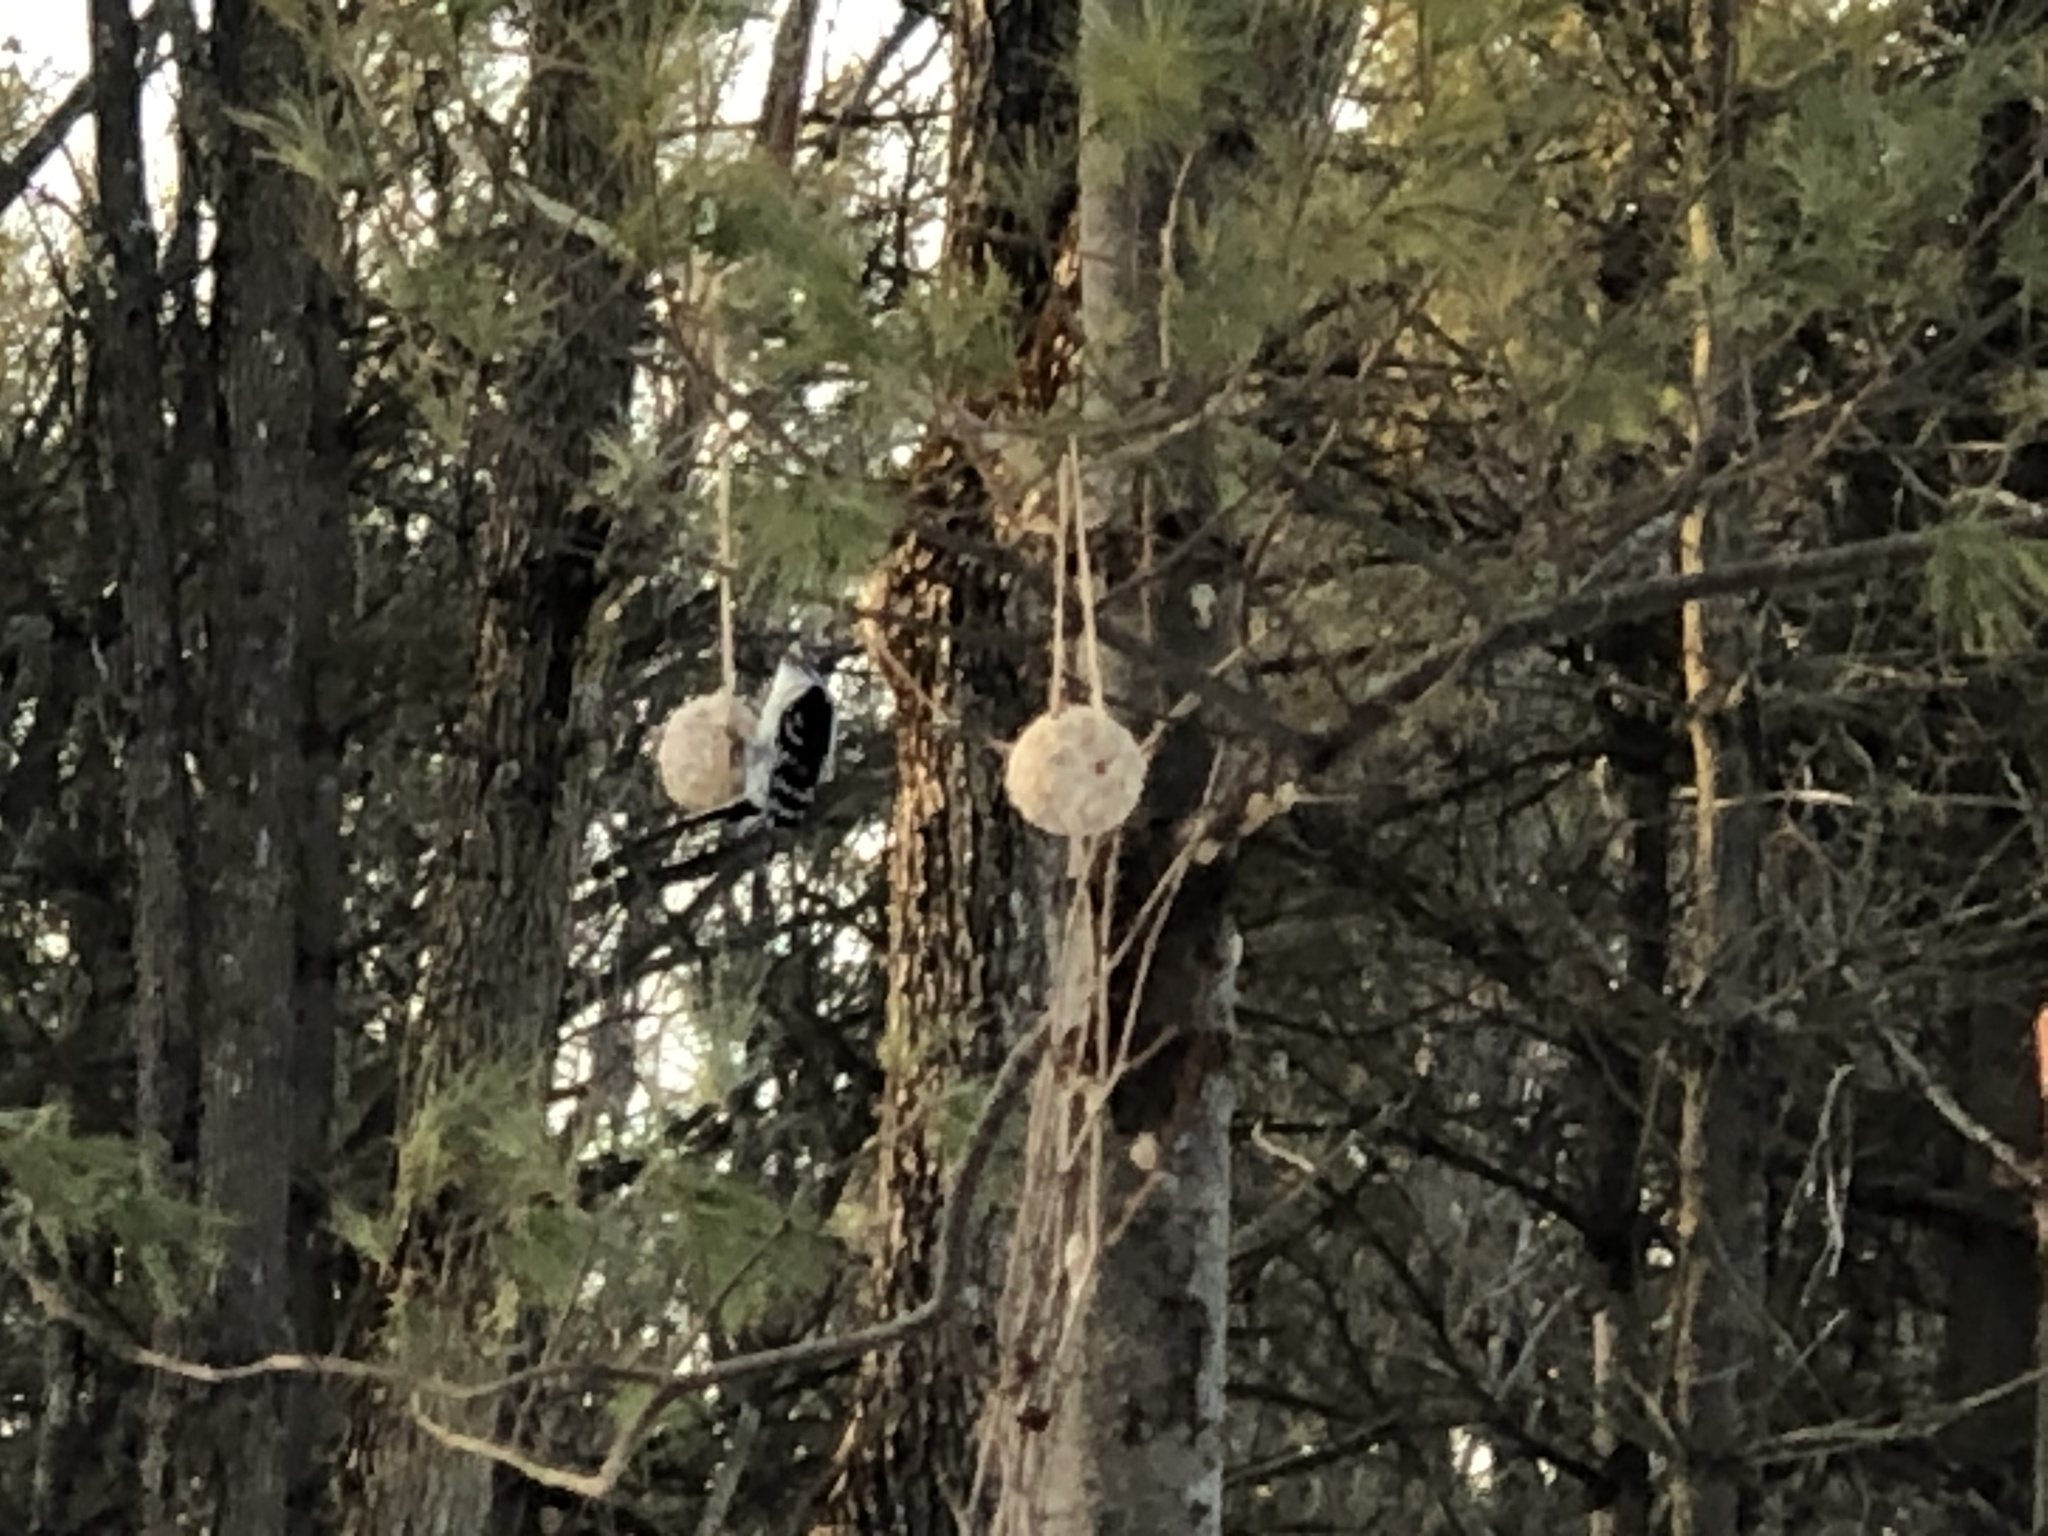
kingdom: Animalia
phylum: Chordata
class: Aves
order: Piciformes
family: Picidae
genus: Dryobates
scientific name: Dryobates pubescens
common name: Downy woodpecker
